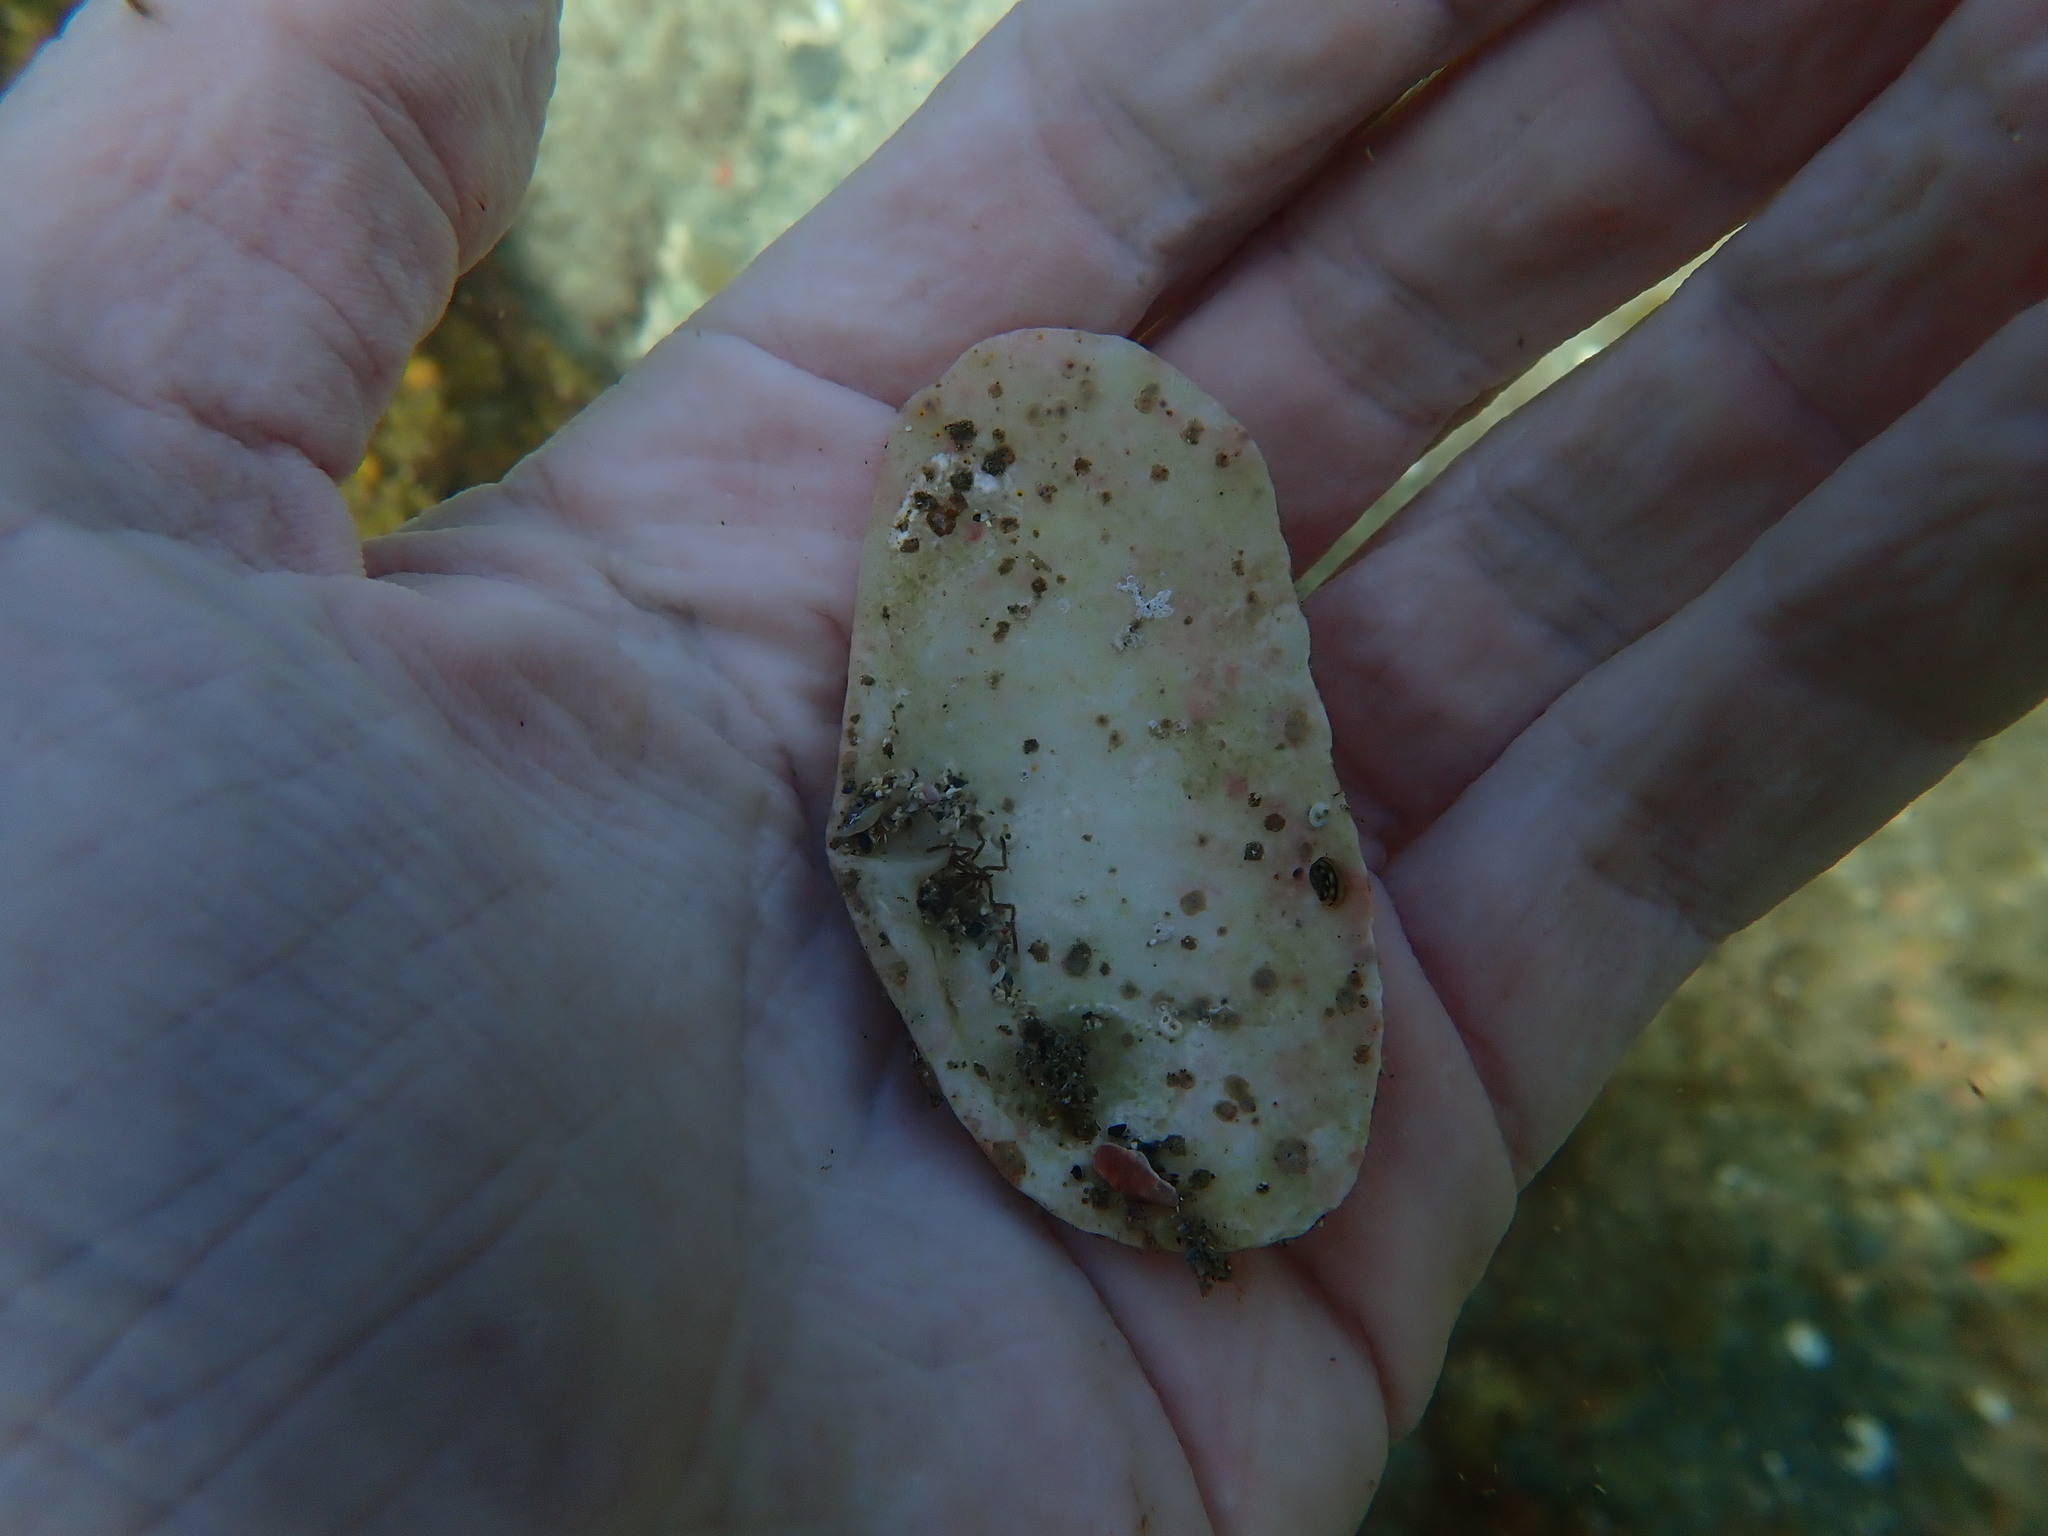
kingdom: Animalia
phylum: Mollusca
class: Bivalvia
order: Venerida
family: Mesodesmatidae
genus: Paphies
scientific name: Paphies australis
